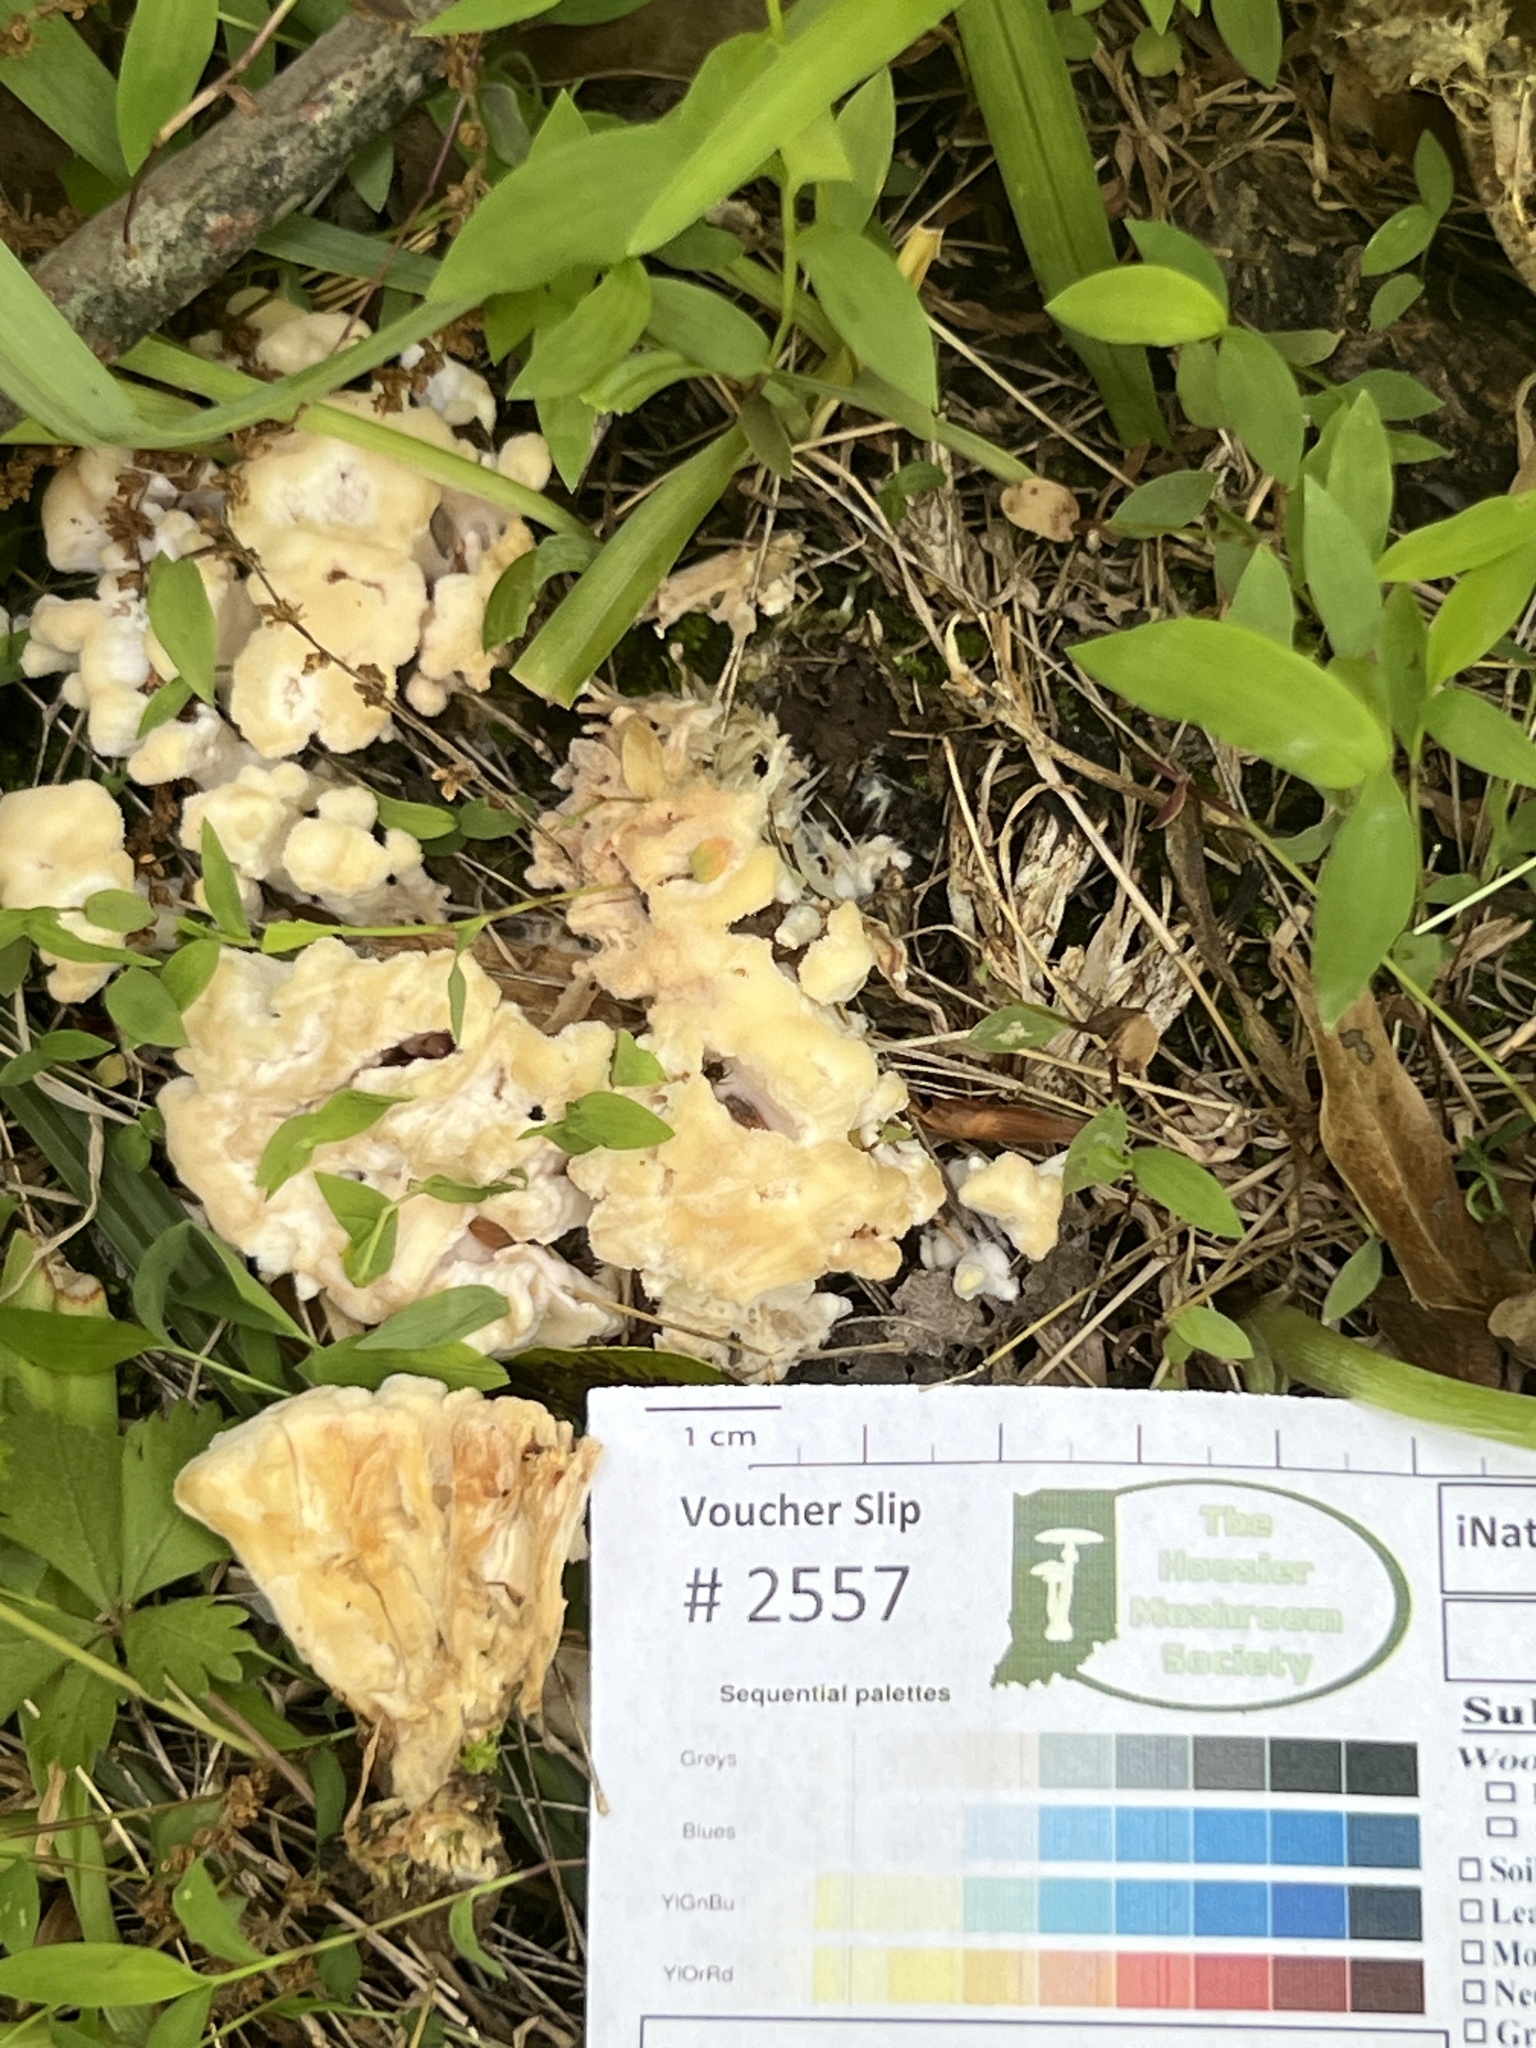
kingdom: Fungi
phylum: Basidiomycota
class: Agaricomycetes
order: Sebacinales
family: Sebacinaceae
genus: Sebacina
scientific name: Sebacina schweinitzii
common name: Jellied false coral fungus
